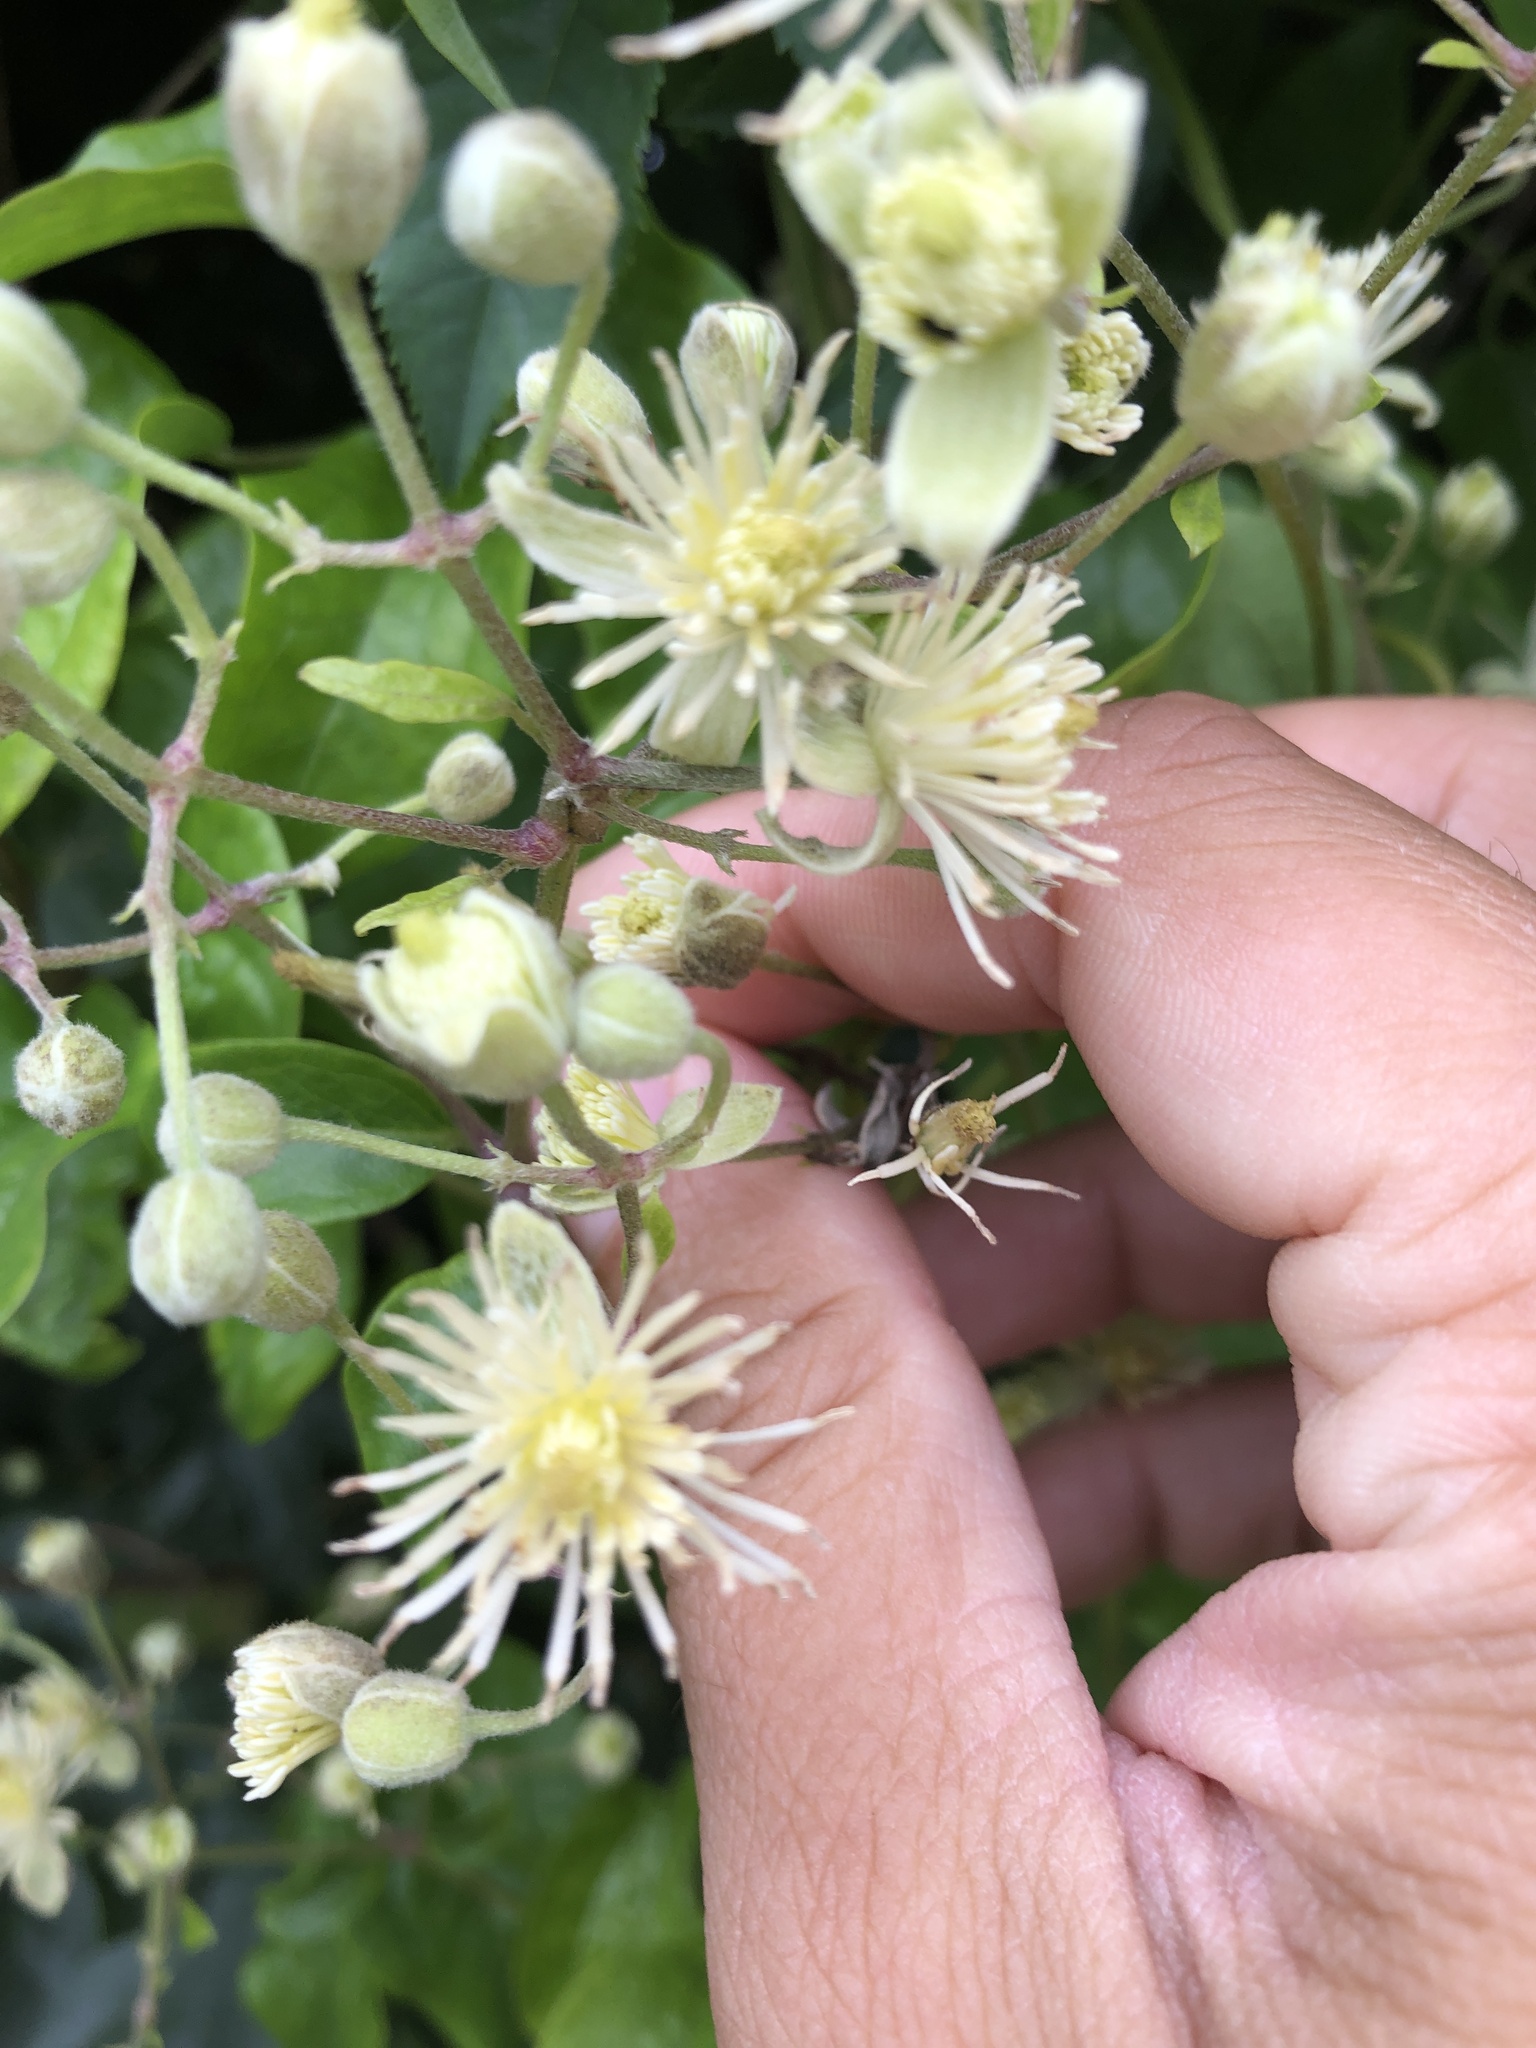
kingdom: Plantae
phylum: Tracheophyta
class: Magnoliopsida
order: Ranunculales
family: Ranunculaceae
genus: Clematis
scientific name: Clematis vitalba
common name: Evergreen clematis
